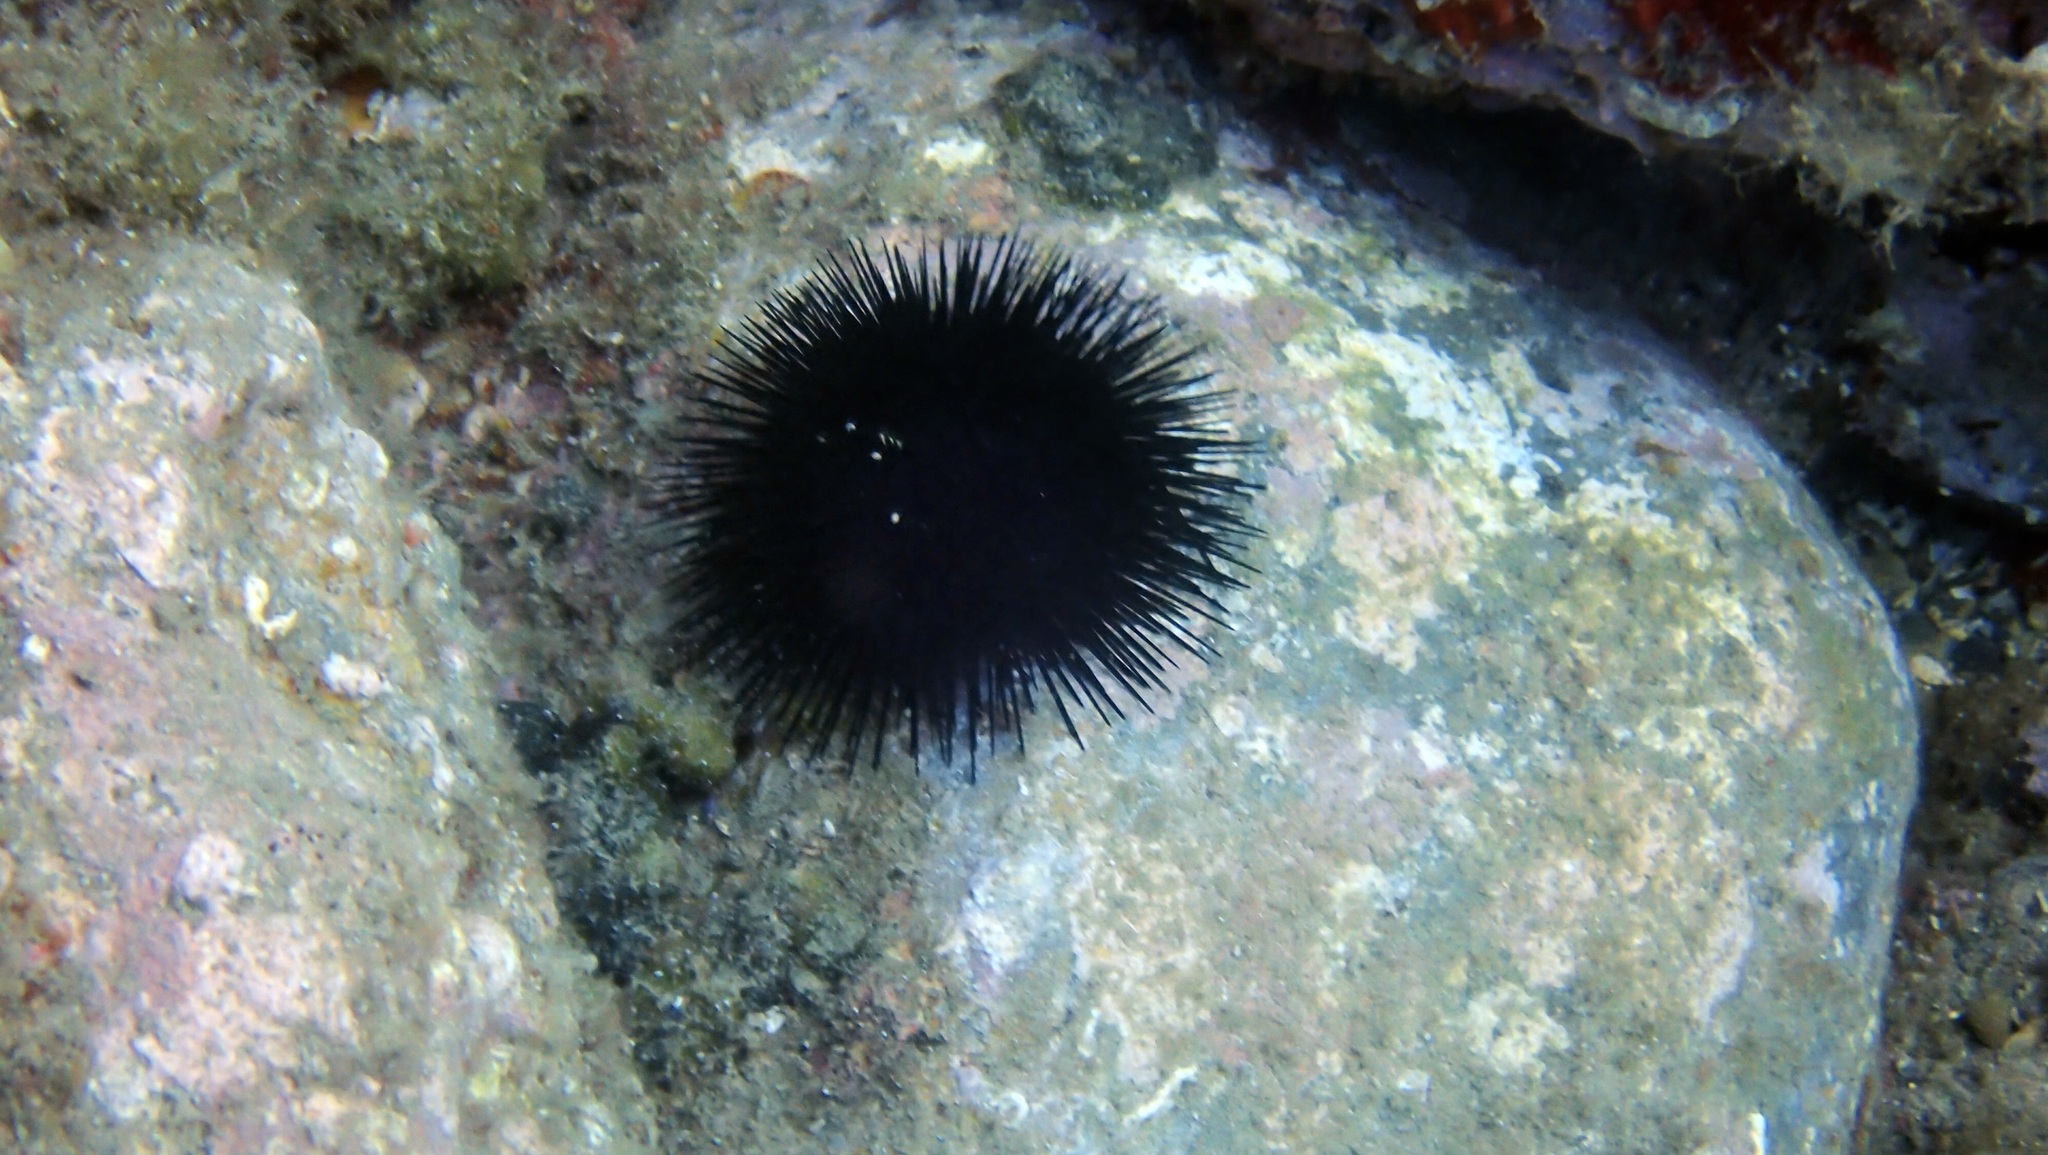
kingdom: Animalia
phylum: Echinodermata
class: Echinoidea
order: Arbacioida
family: Arbaciidae
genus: Arbacia
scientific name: Arbacia lixula
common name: Black sea urchin
